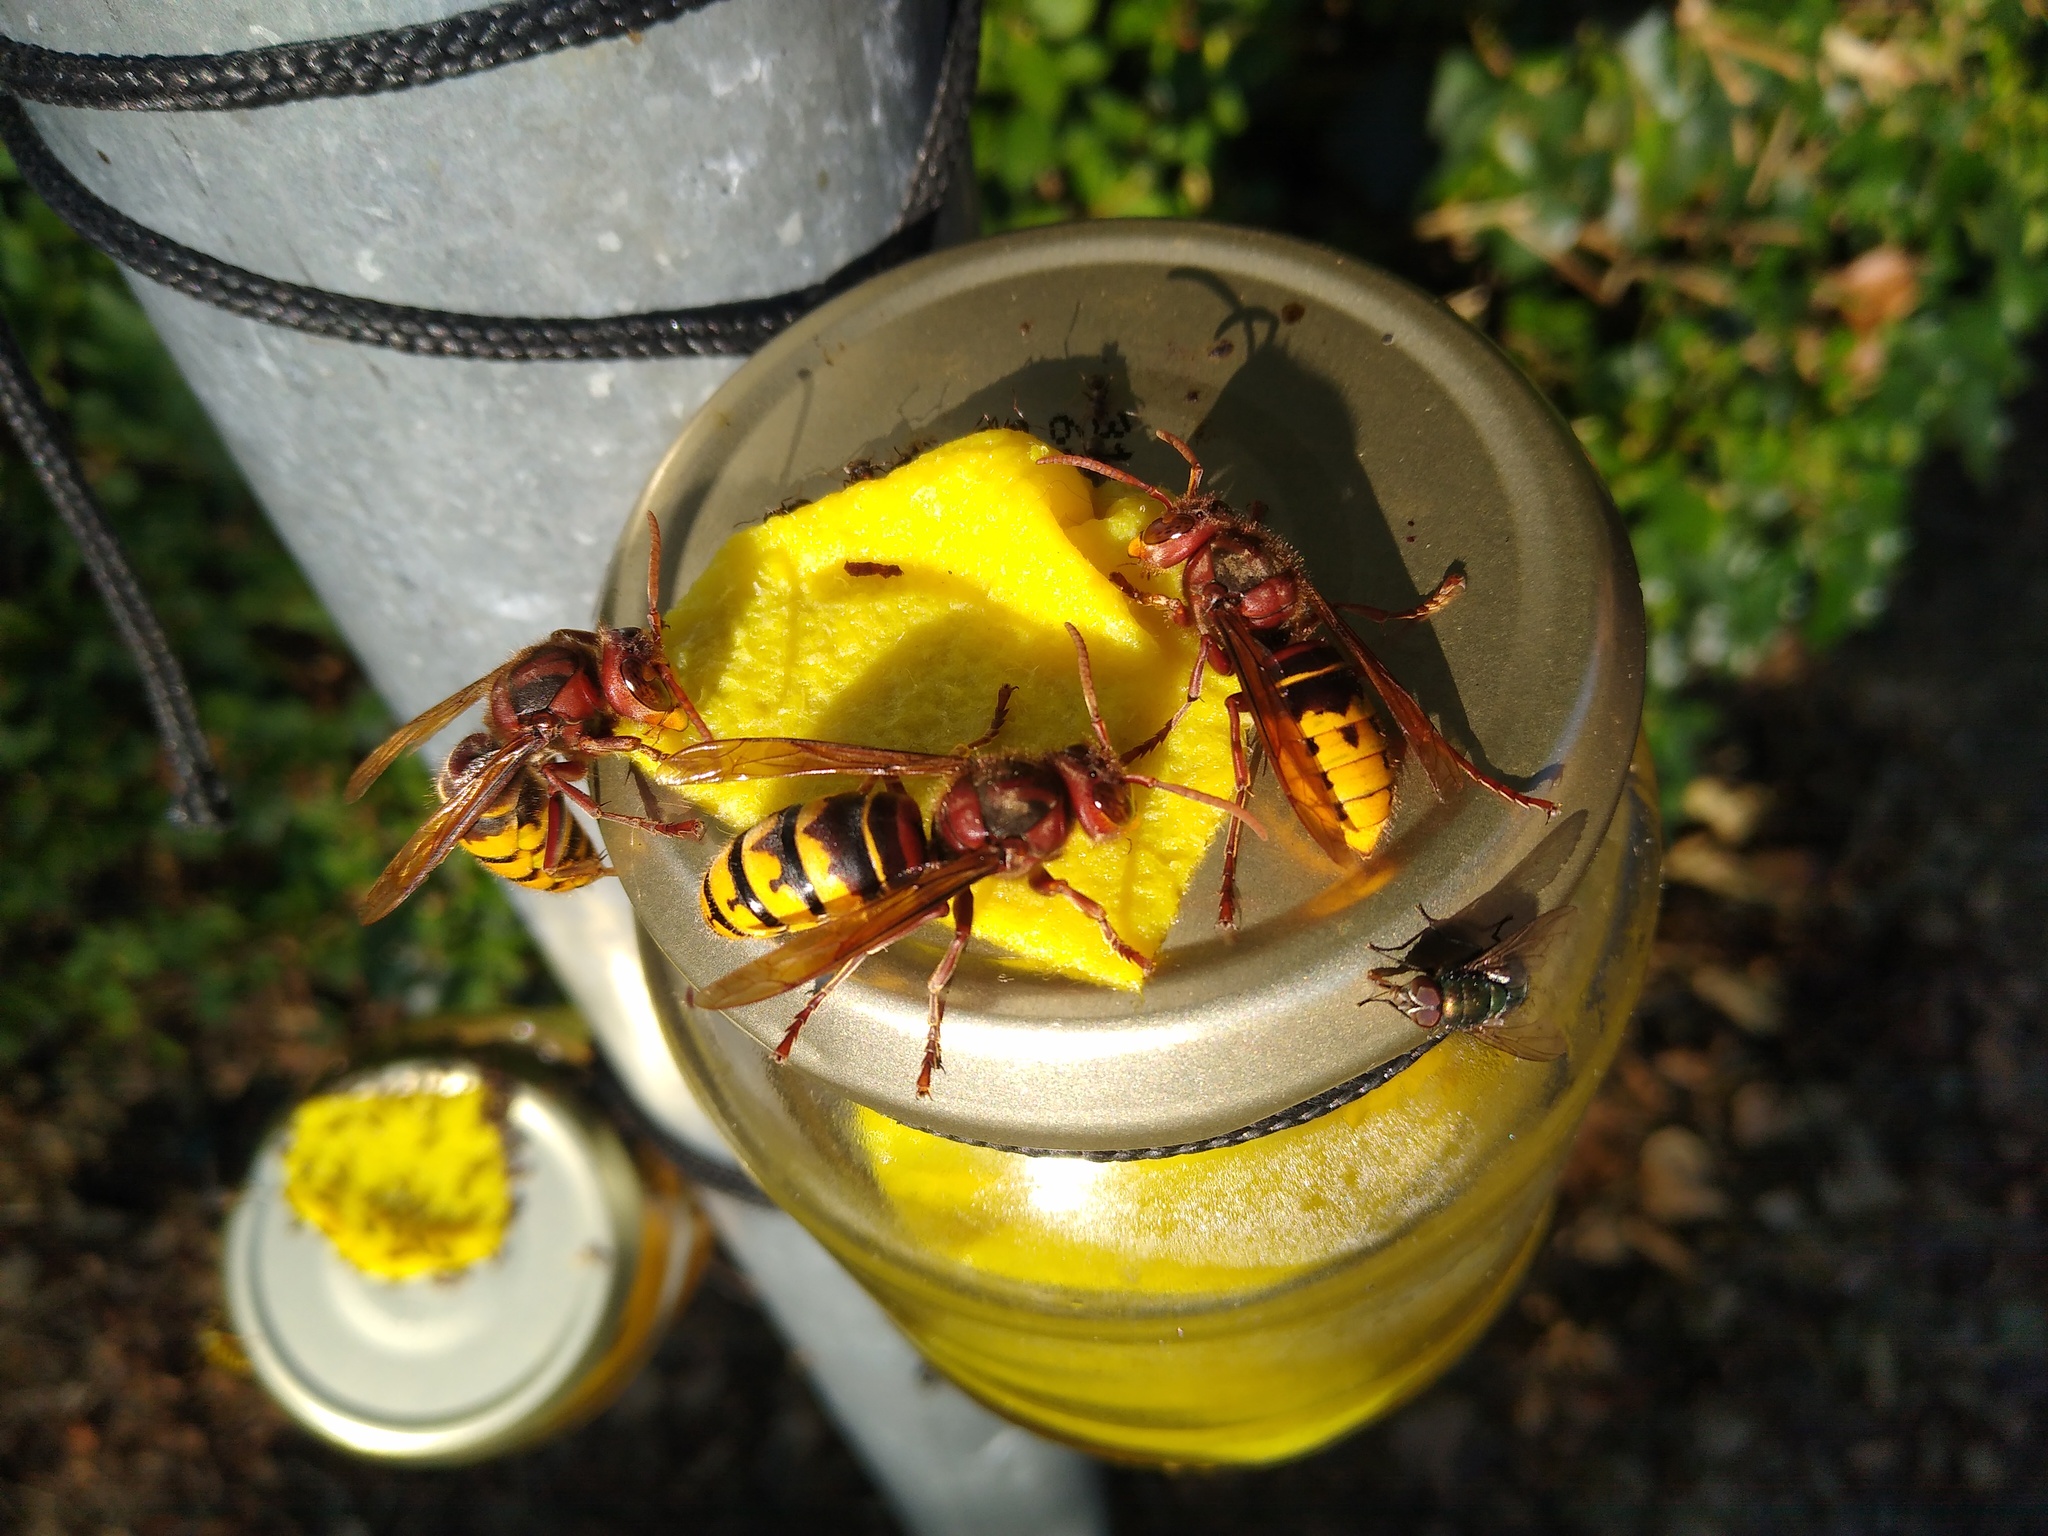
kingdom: Animalia
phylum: Arthropoda
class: Insecta
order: Hymenoptera
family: Vespidae
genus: Vespa
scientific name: Vespa crabro
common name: Hornet
